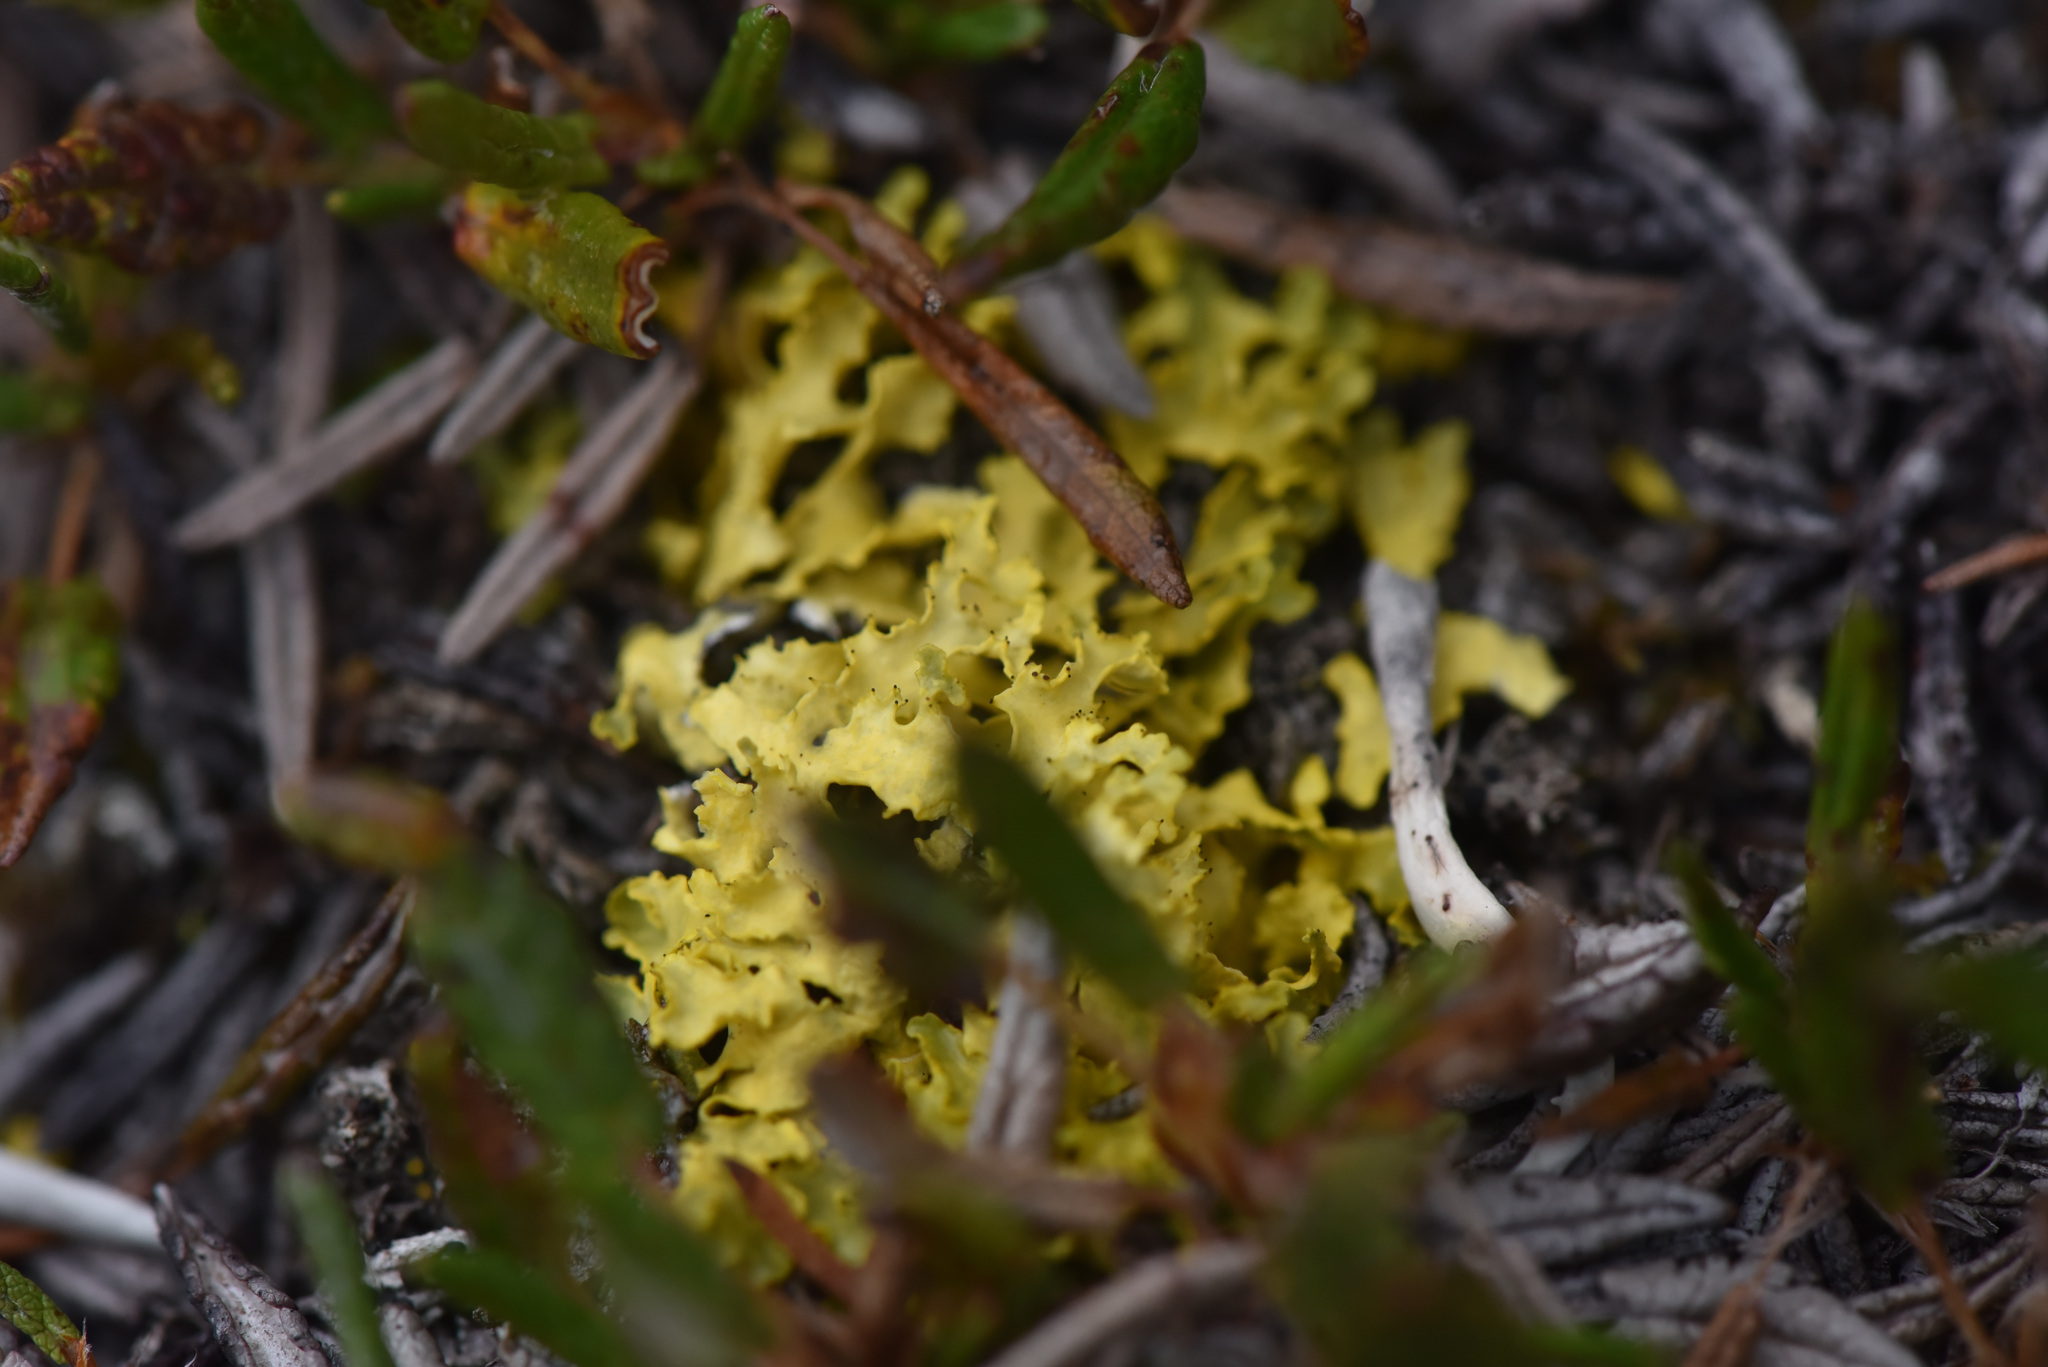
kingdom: Fungi
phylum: Ascomycota
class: Lecanoromycetes
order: Lecanorales
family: Parmeliaceae
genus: Vulpicida
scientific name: Vulpicida juniperinus
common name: Yellow lichen
